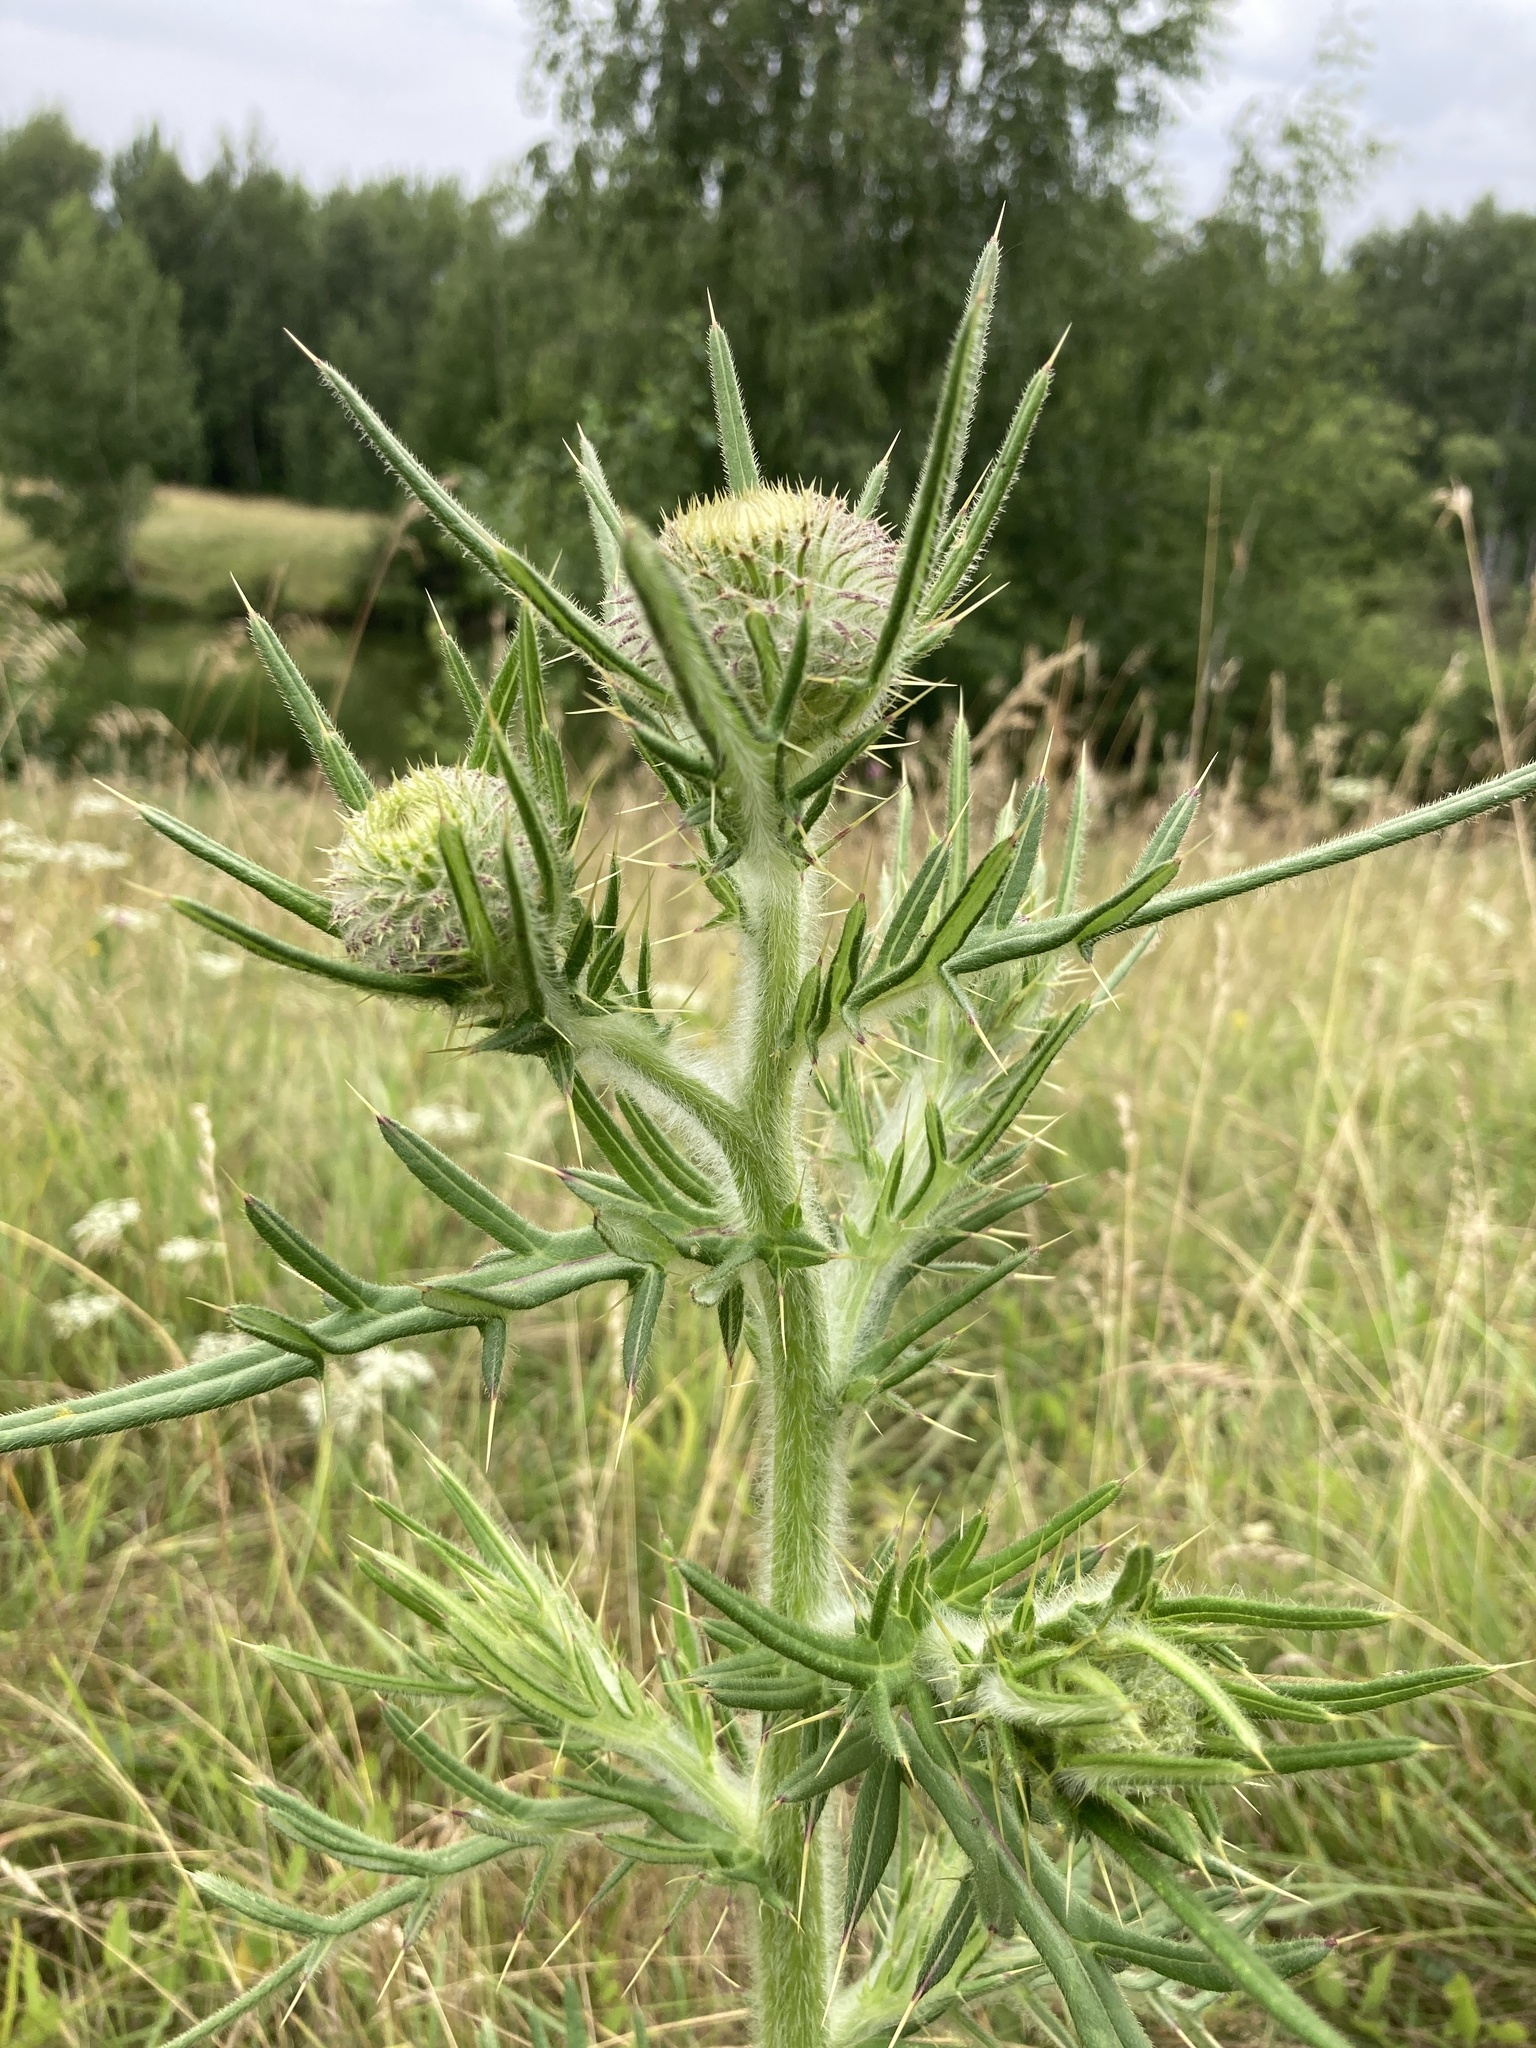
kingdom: Plantae
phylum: Tracheophyta
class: Magnoliopsida
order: Asterales
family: Asteraceae
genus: Lophiolepis
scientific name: Lophiolepis decussata
